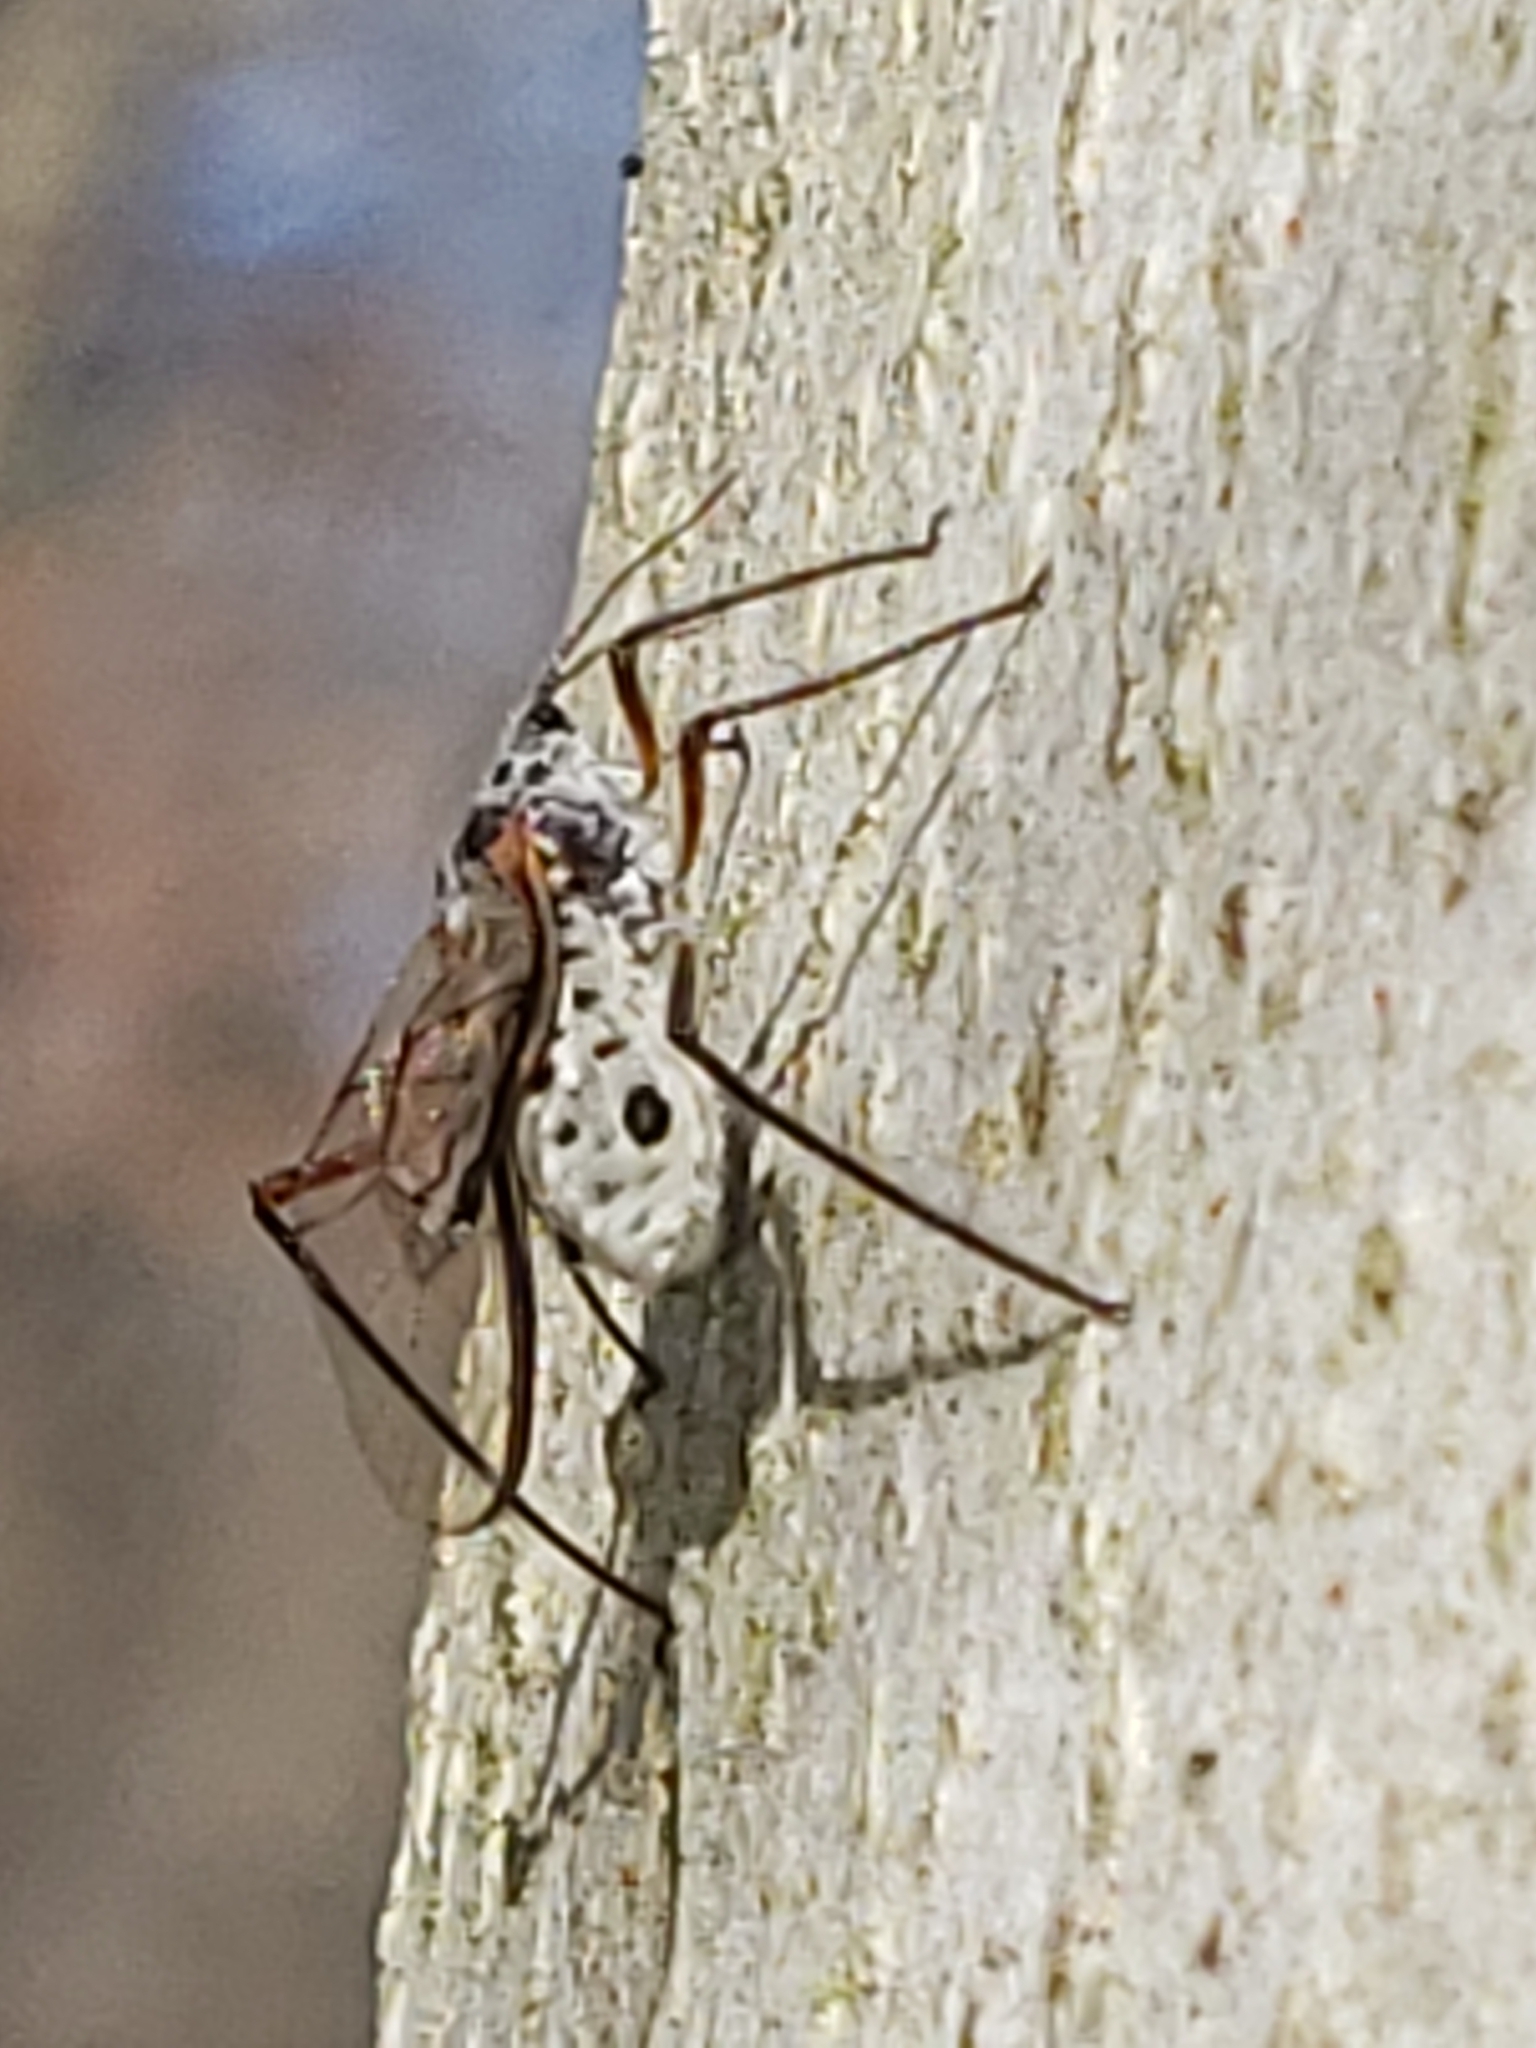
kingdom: Animalia
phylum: Arthropoda
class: Insecta
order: Hemiptera
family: Aphididae
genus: Longistigma
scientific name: Longistigma caryae
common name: Giant bark aphid
